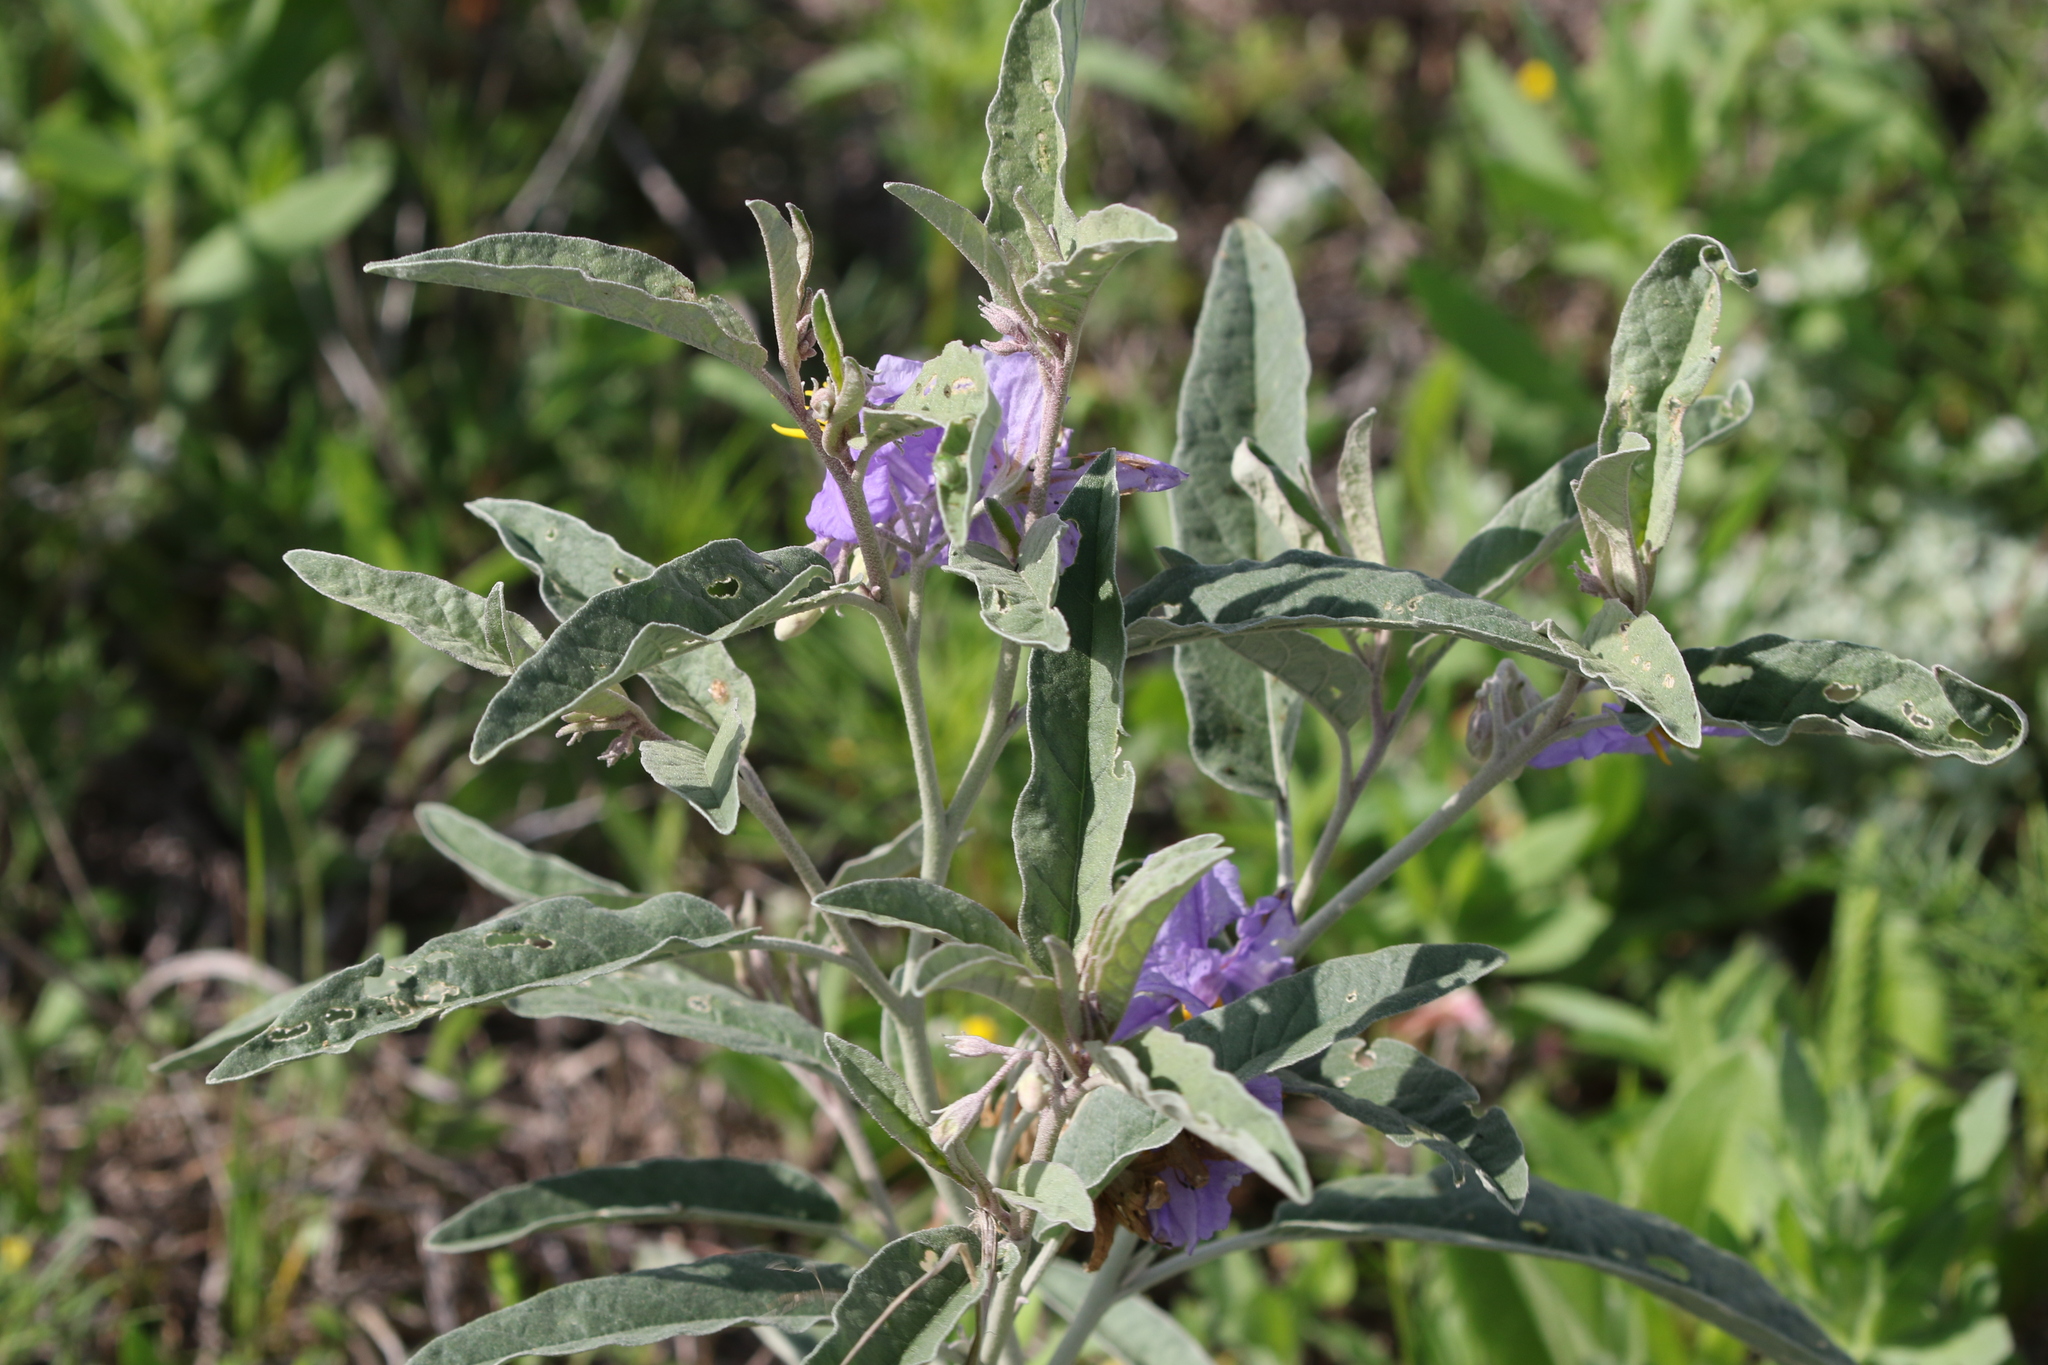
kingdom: Plantae
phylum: Tracheophyta
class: Magnoliopsida
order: Solanales
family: Solanaceae
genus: Solanum
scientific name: Solanum elaeagnifolium
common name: Silverleaf nightshade
